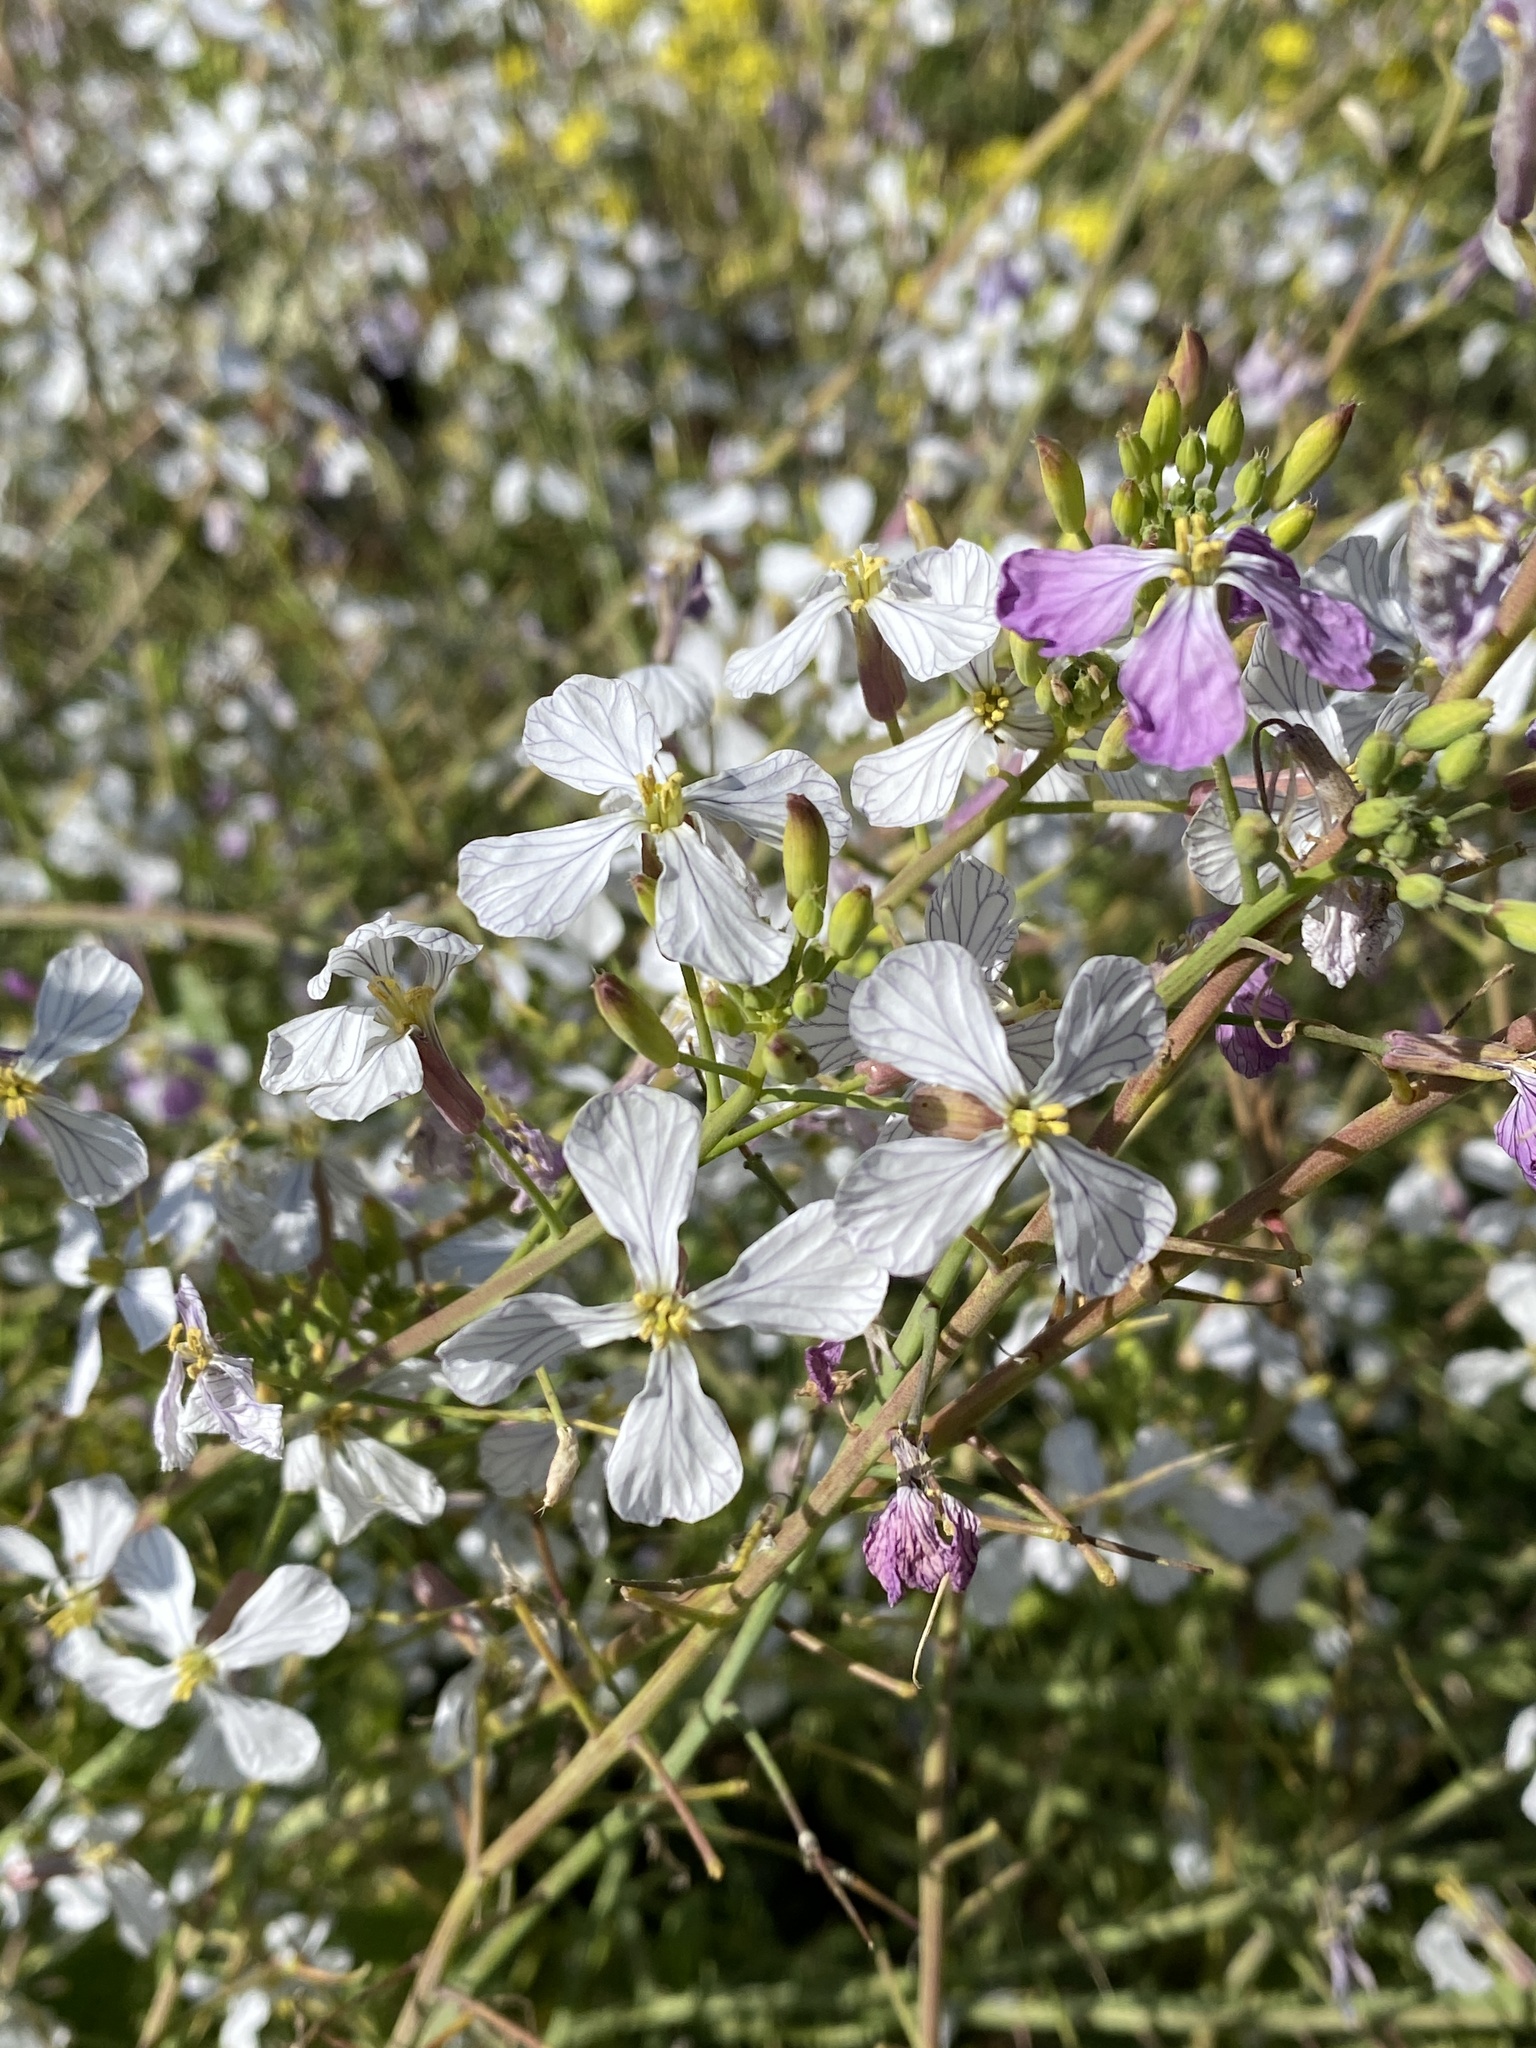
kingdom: Plantae
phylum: Tracheophyta
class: Magnoliopsida
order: Brassicales
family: Brassicaceae
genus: Raphanus
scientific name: Raphanus sativus
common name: Cultivated radish
